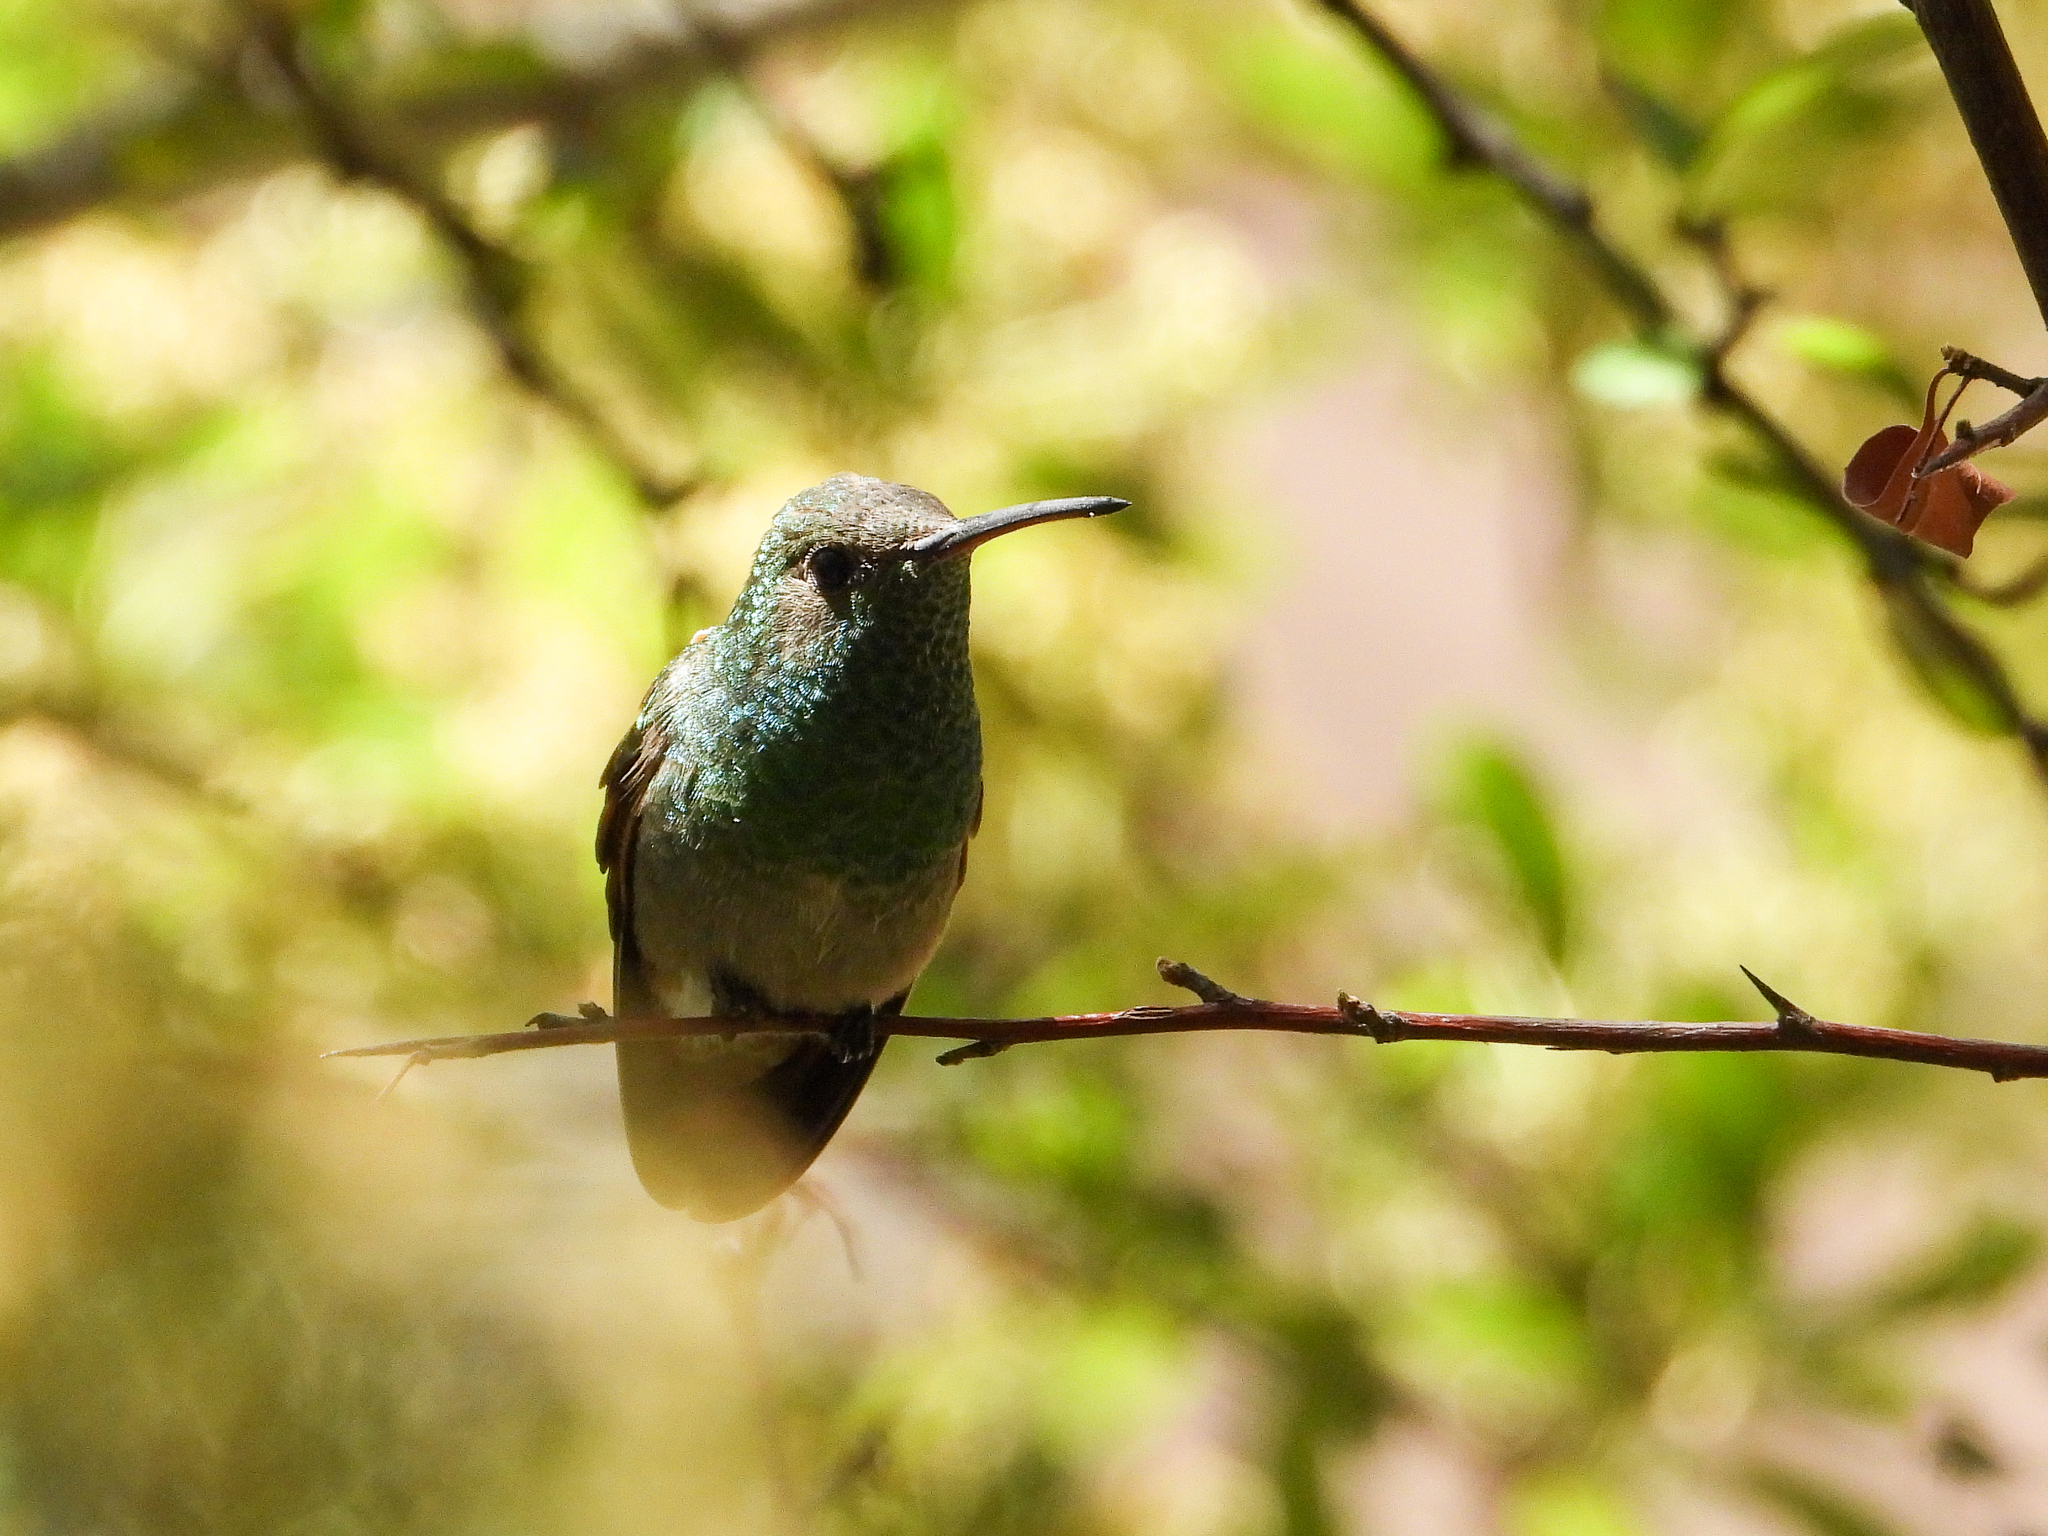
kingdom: Animalia
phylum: Chordata
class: Aves
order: Apodiformes
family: Trochilidae
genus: Saucerottia
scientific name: Saucerottia beryllina
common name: Berylline hummingbird
